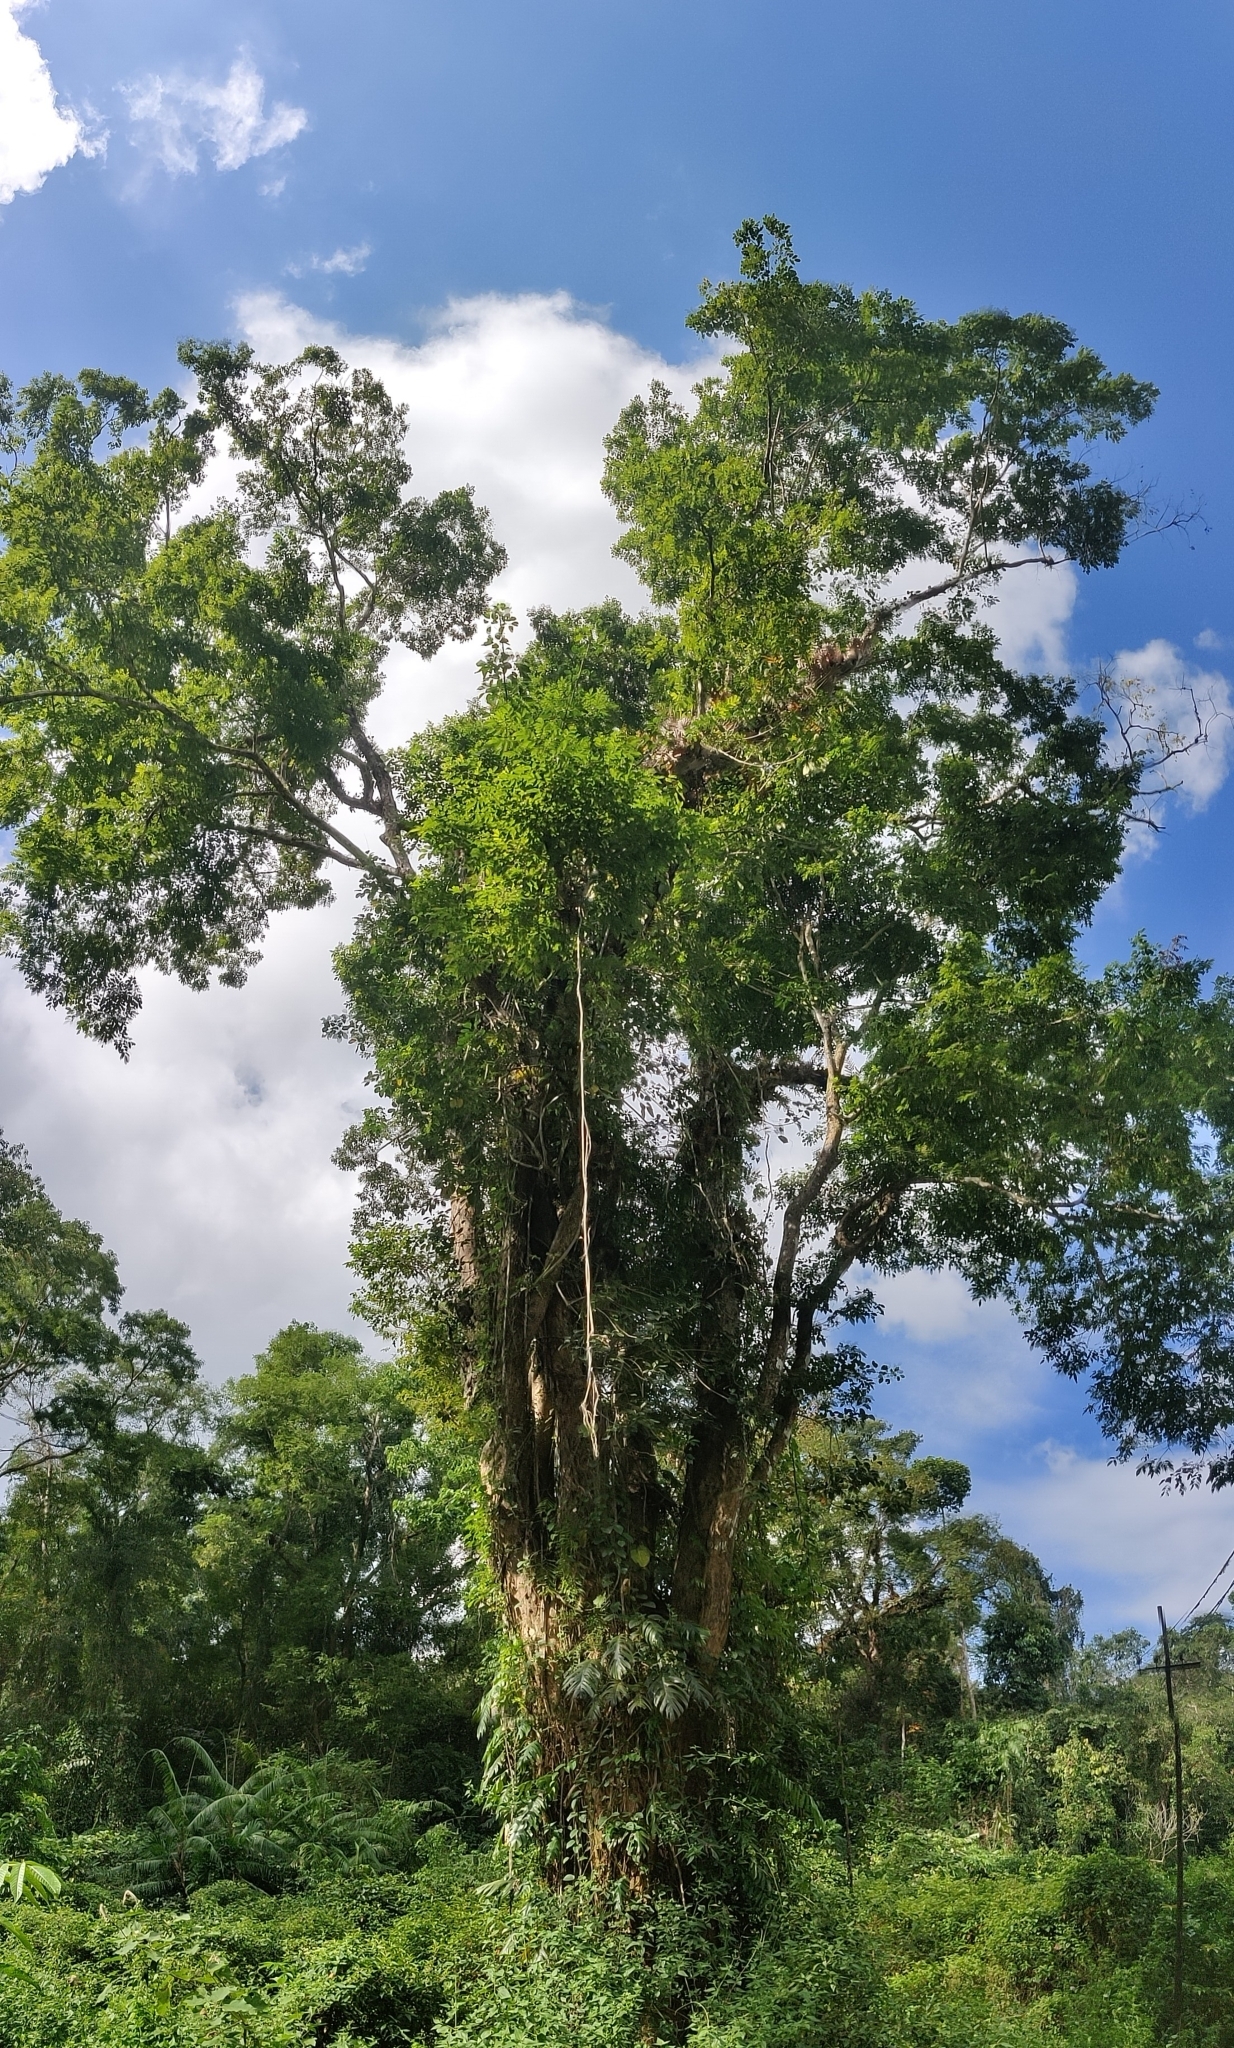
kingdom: Plantae
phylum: Tracheophyta
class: Magnoliopsida
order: Fabales
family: Fabaceae
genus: Pterocarpus
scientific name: Pterocarpus dalbergioides
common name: Andaman redwood
